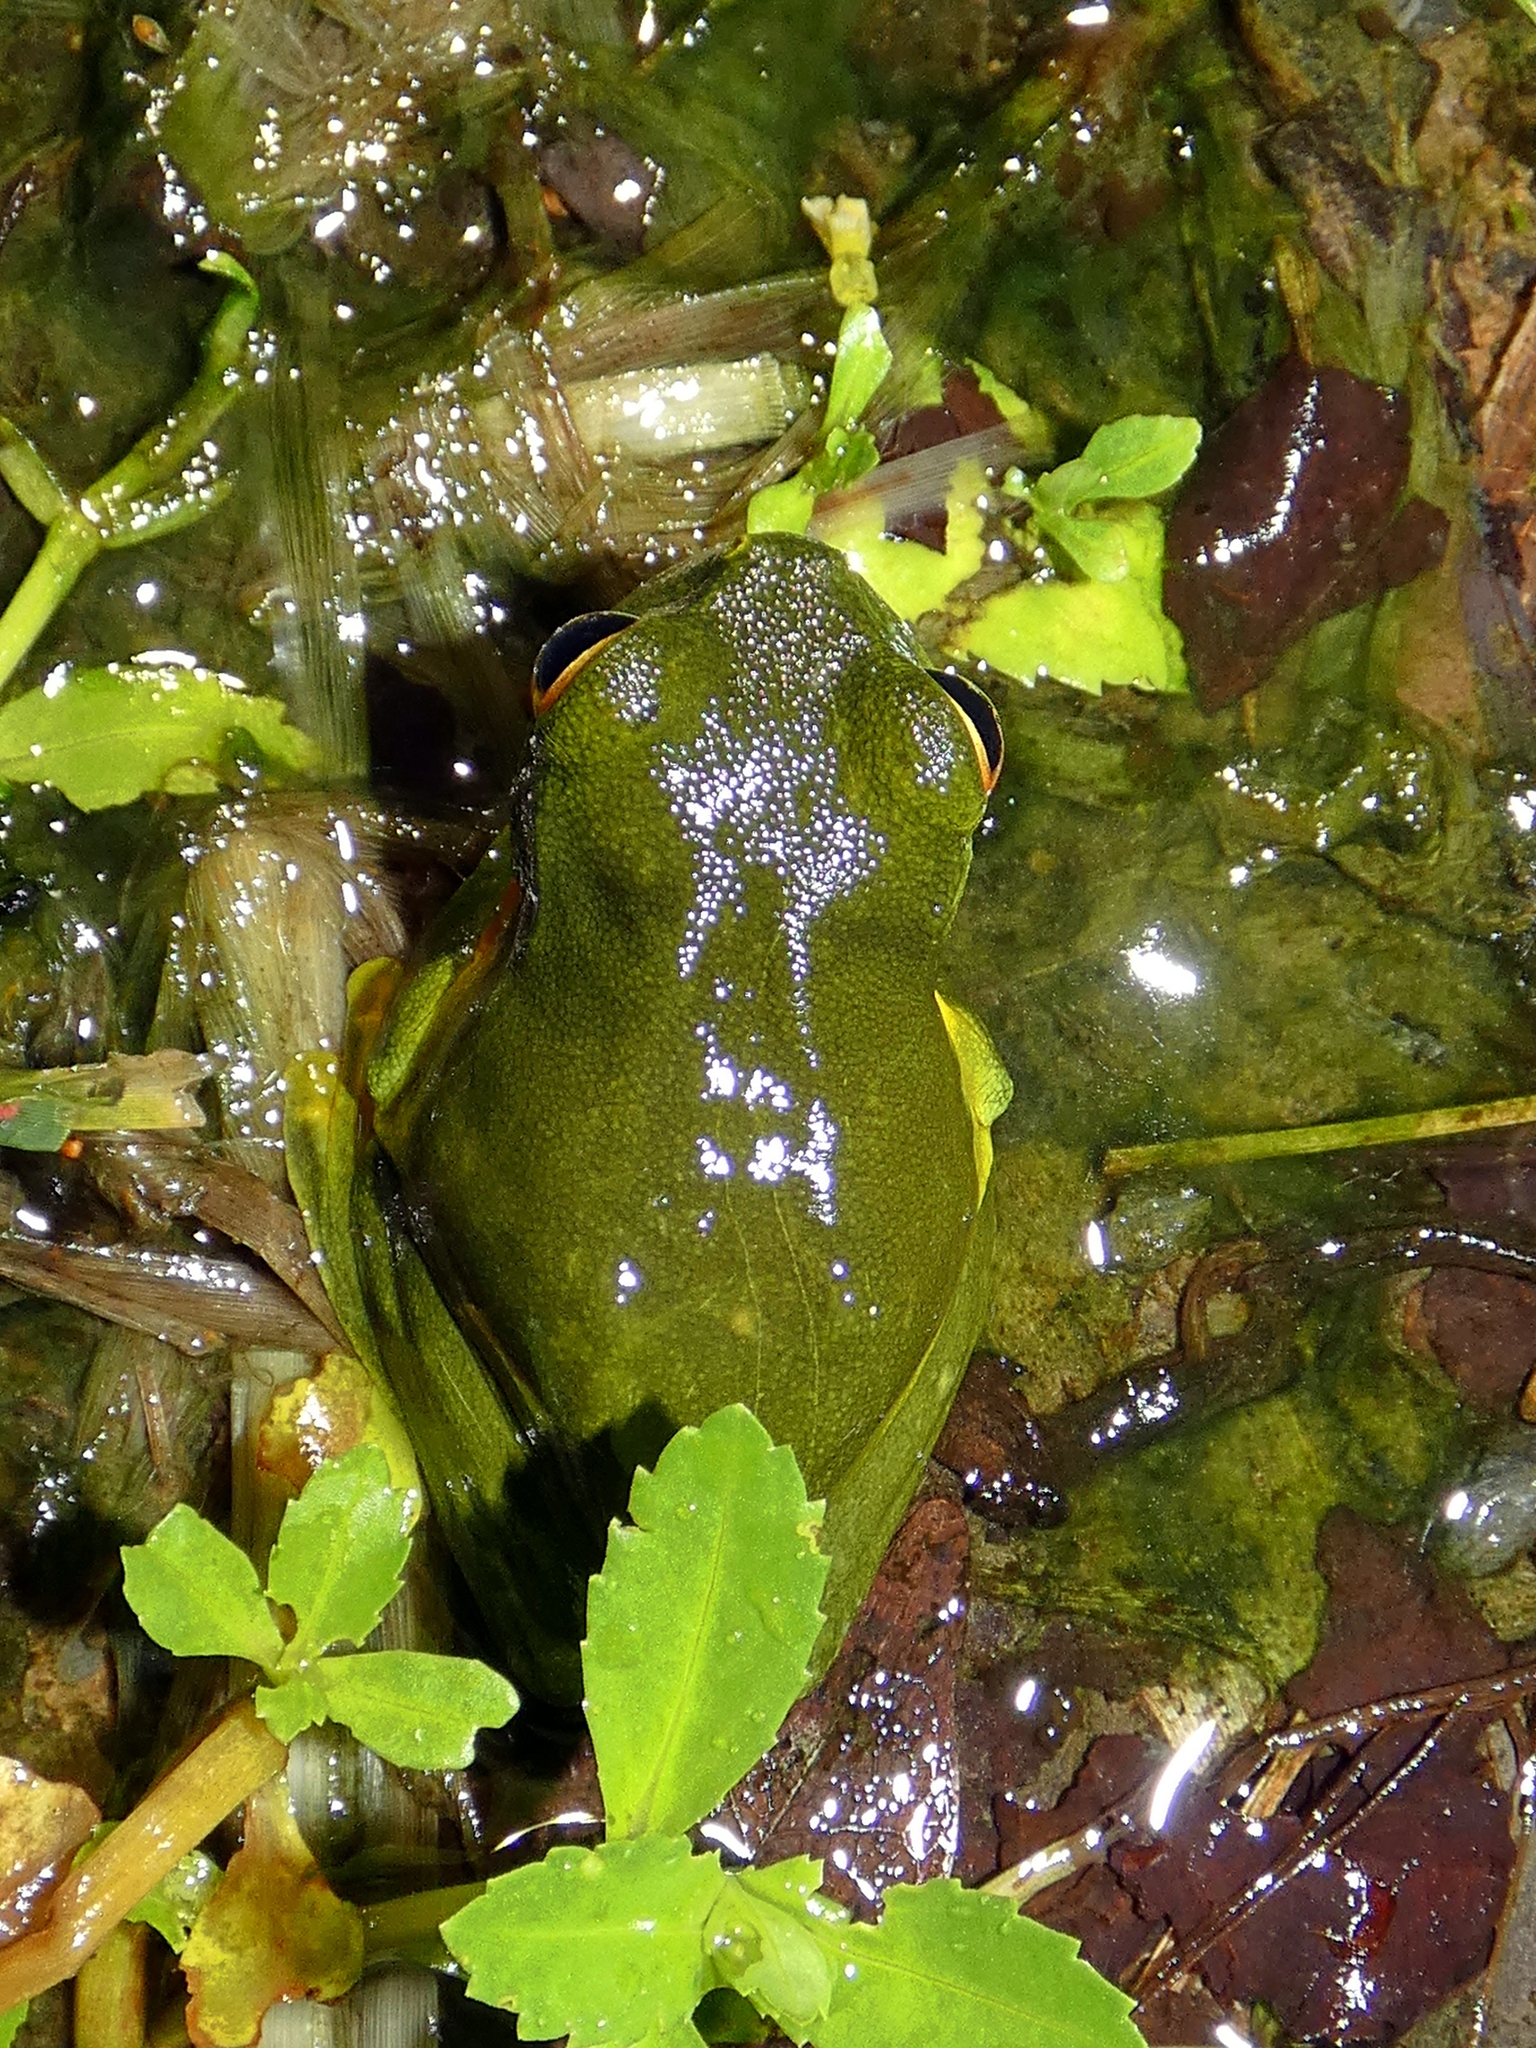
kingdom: Animalia
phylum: Chordata
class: Amphibia
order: Anura
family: Pelodryadidae
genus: Ranoidea
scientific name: Ranoidea xanthomera
